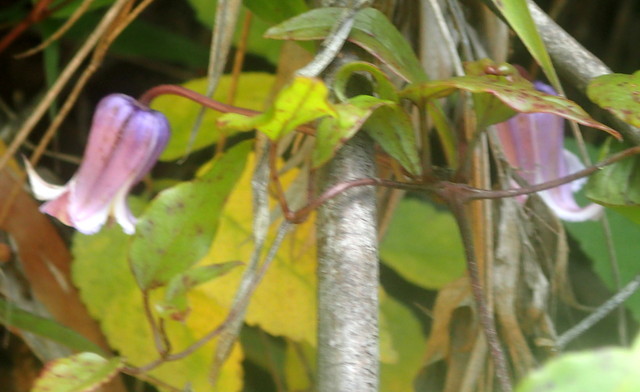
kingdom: Plantae
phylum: Tracheophyta
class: Magnoliopsida
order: Ranunculales
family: Ranunculaceae
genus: Clematis
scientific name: Clematis crispa
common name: Curly clematis
